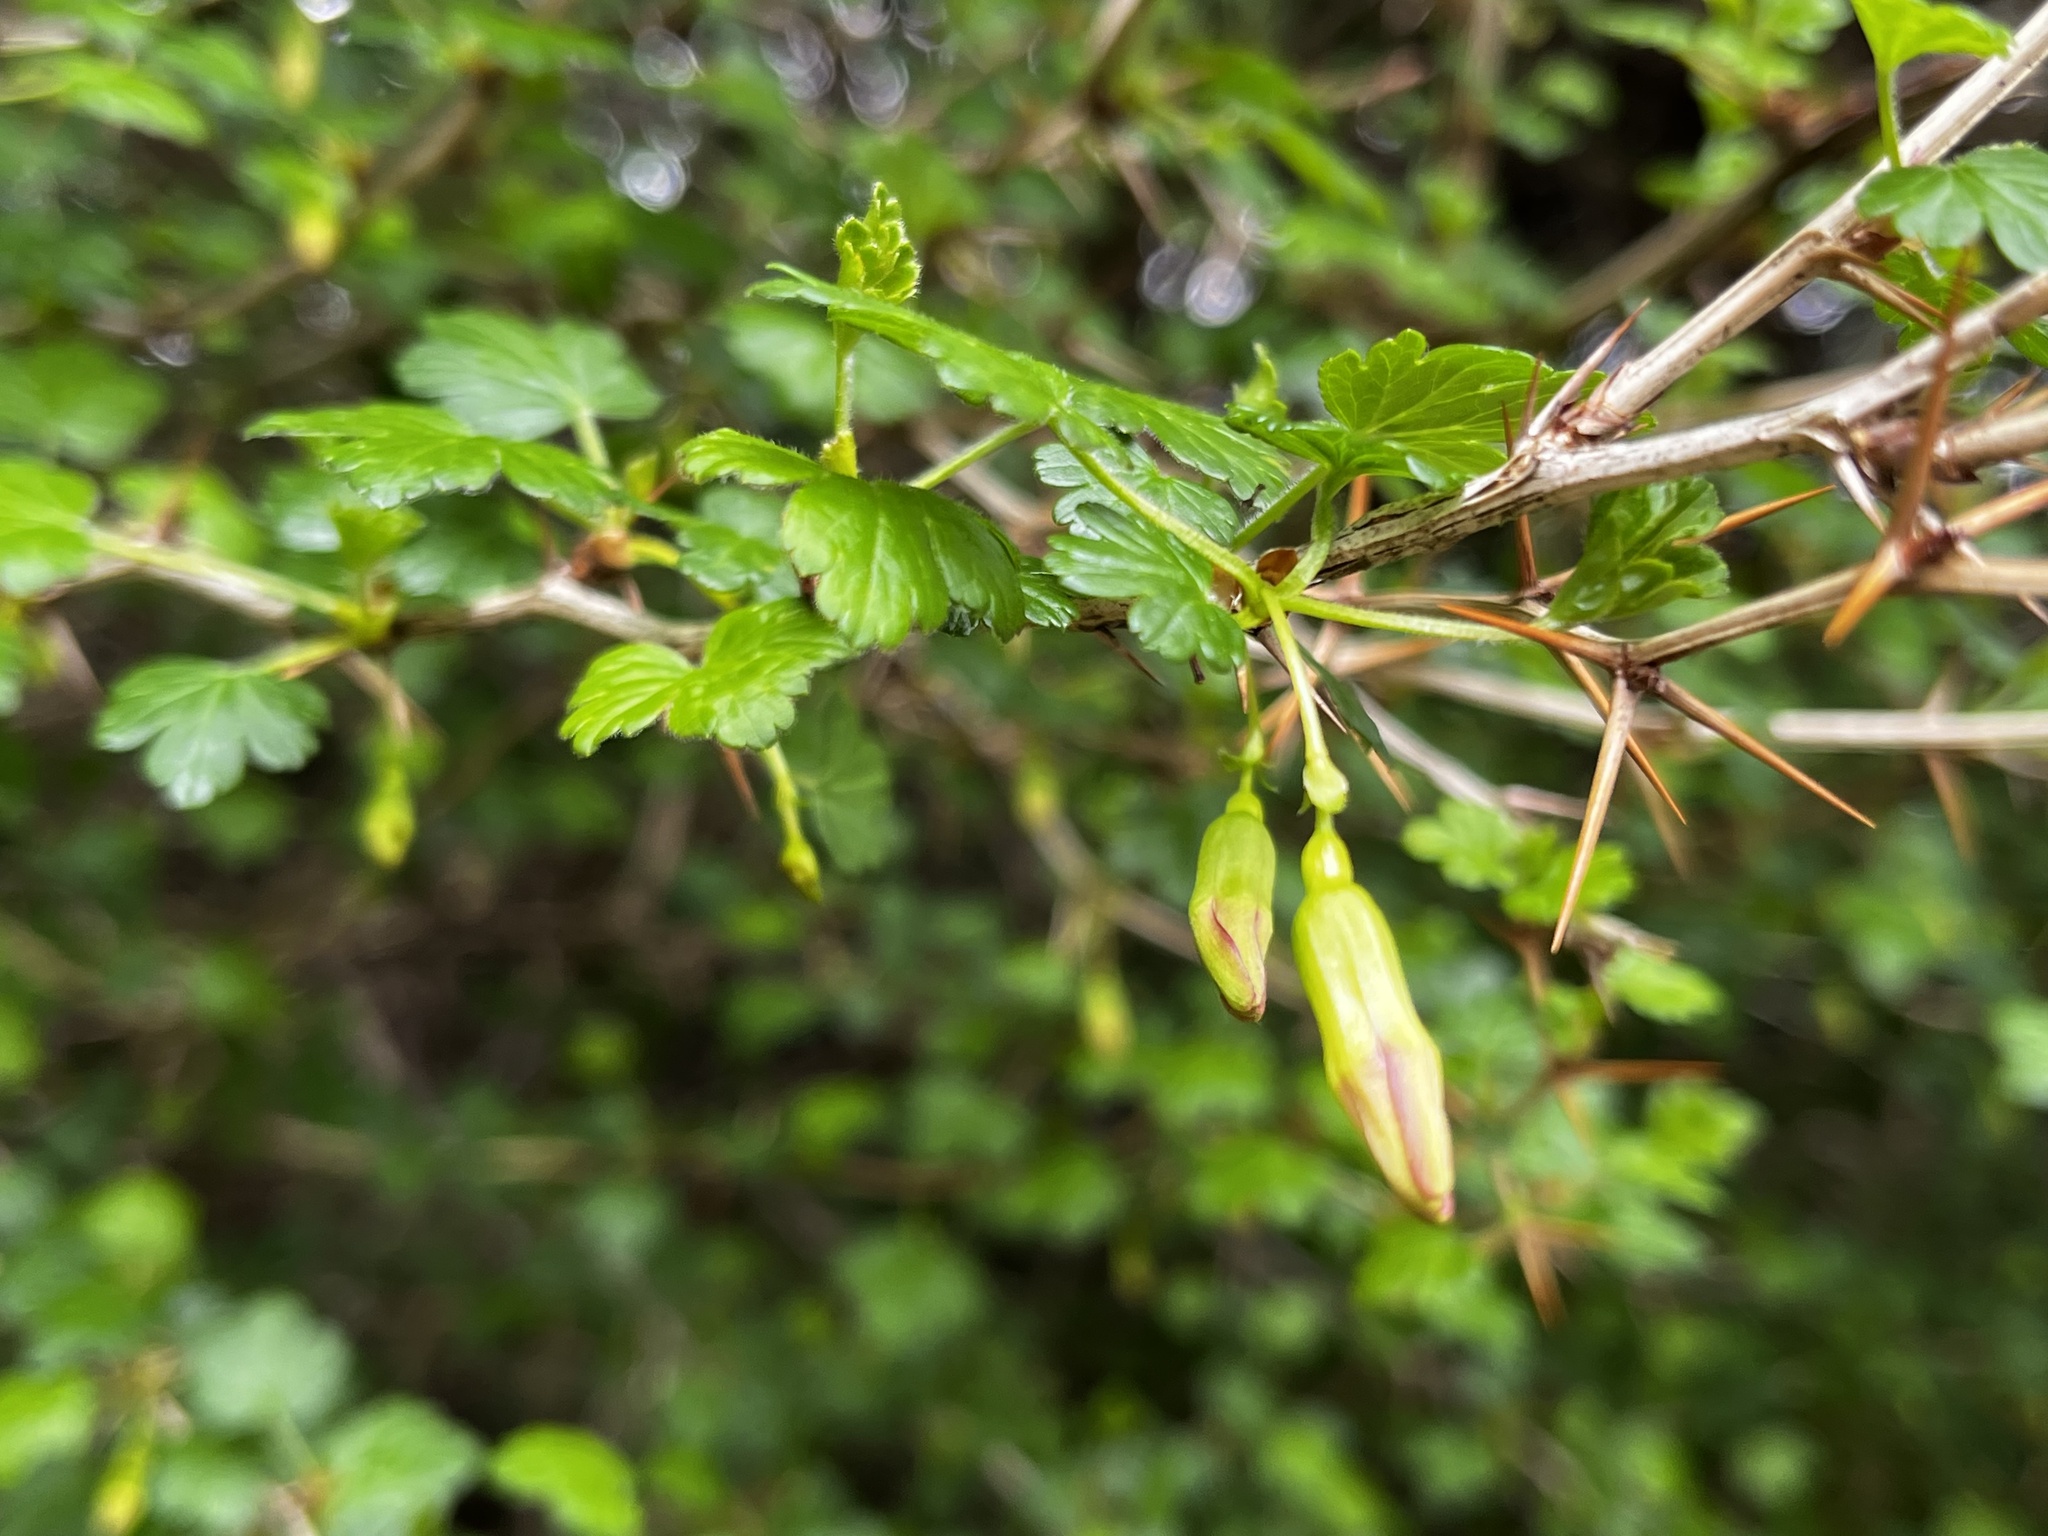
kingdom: Plantae
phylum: Tracheophyta
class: Magnoliopsida
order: Saxifragales
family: Grossulariaceae
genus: Ribes
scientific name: Ribes formosanum
